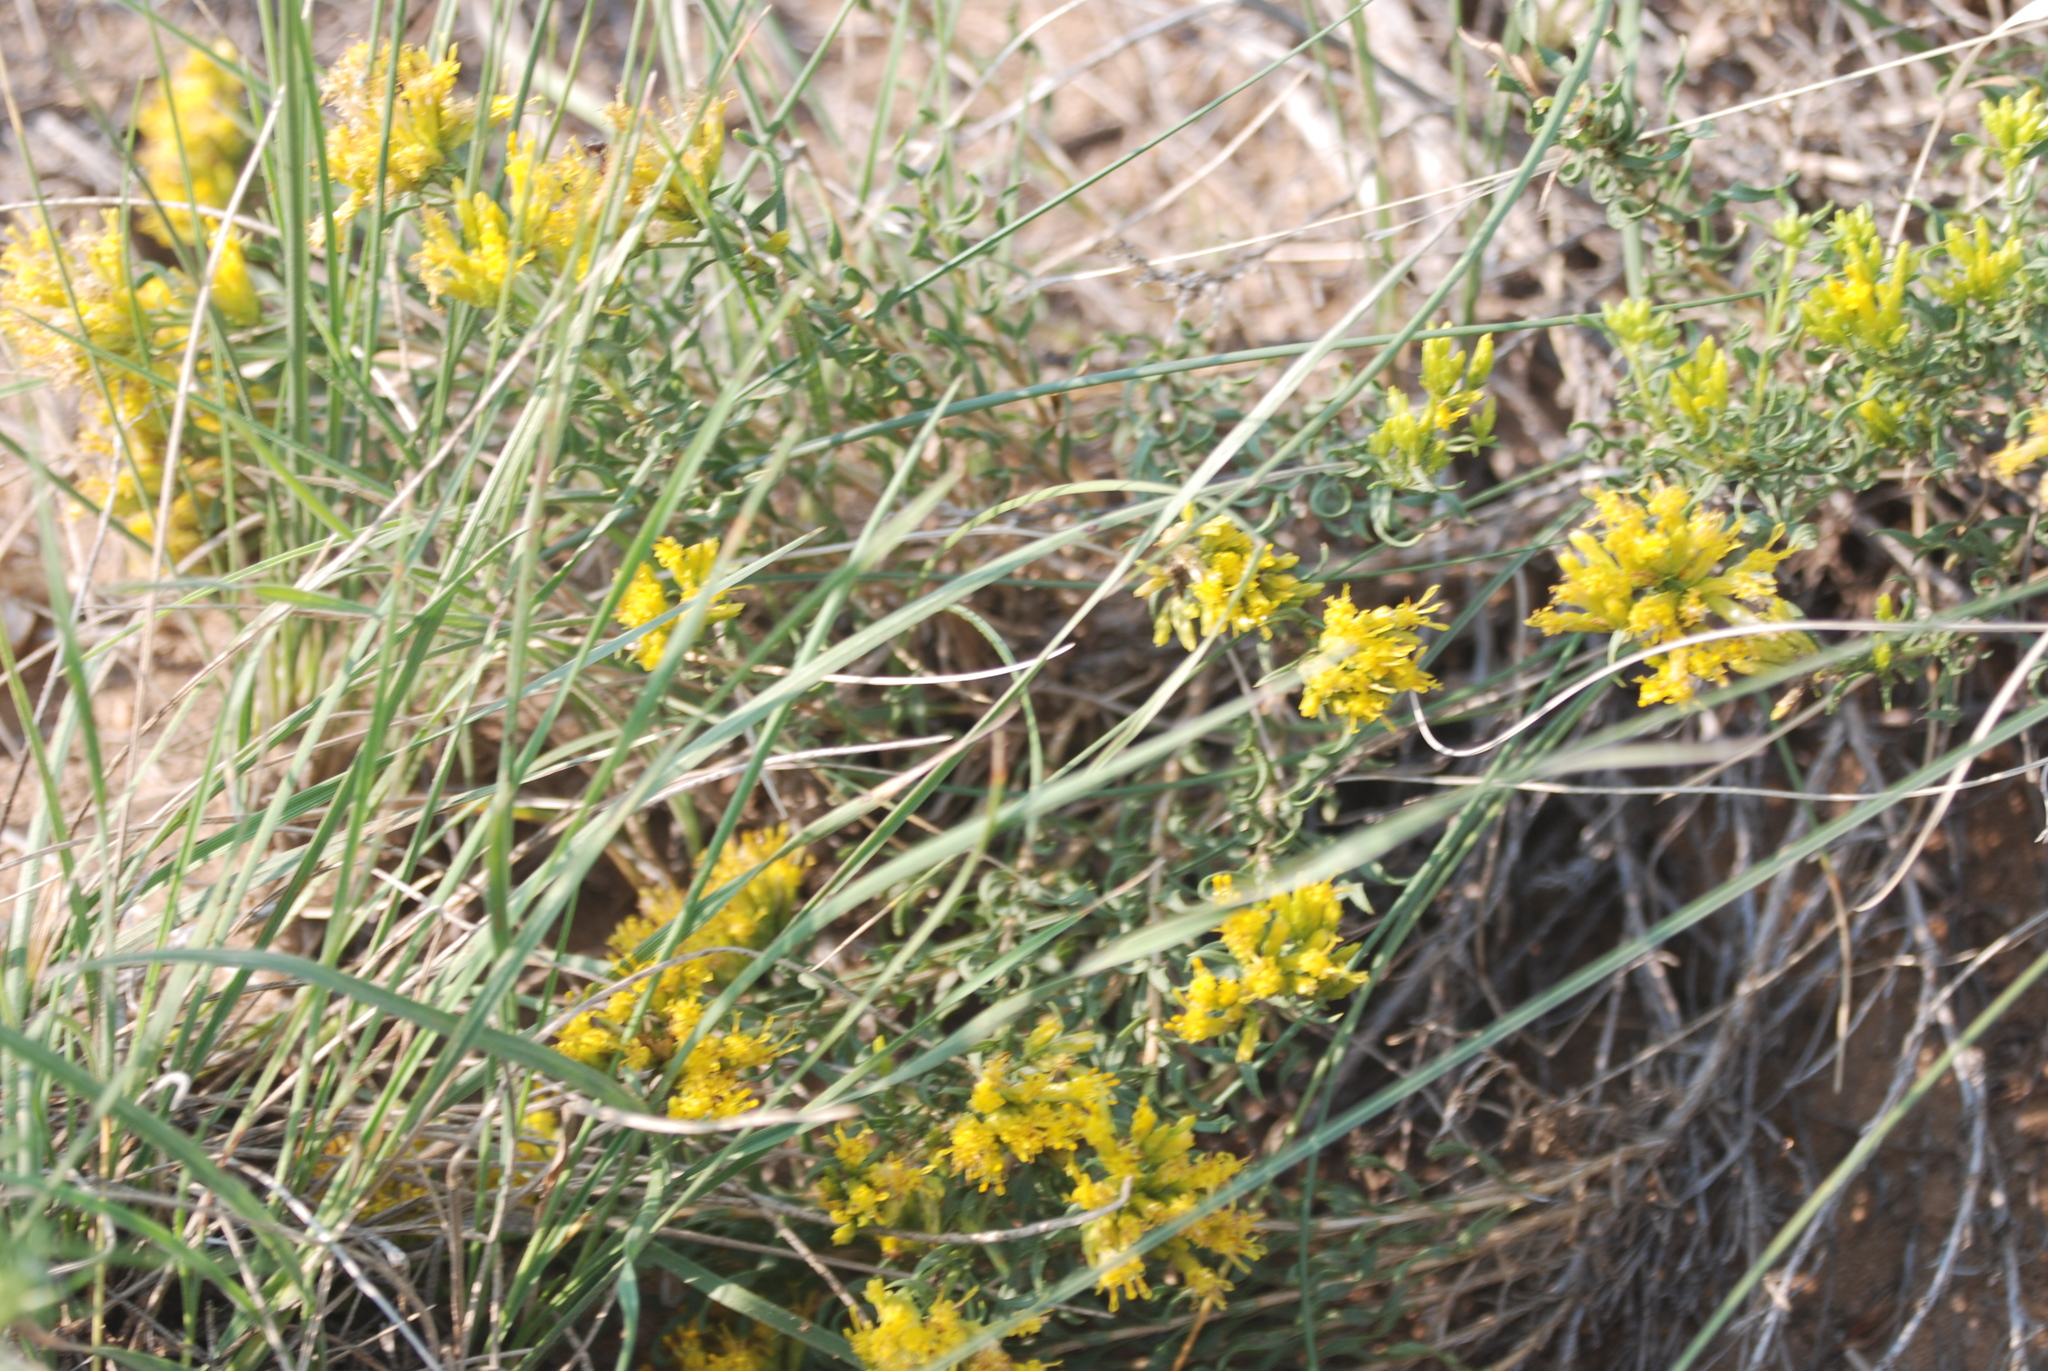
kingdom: Plantae
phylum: Tracheophyta
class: Magnoliopsida
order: Asterales
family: Asteraceae
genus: Chrysothamnus
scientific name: Chrysothamnus viscidiflorus
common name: Yellow rabbitbrush
